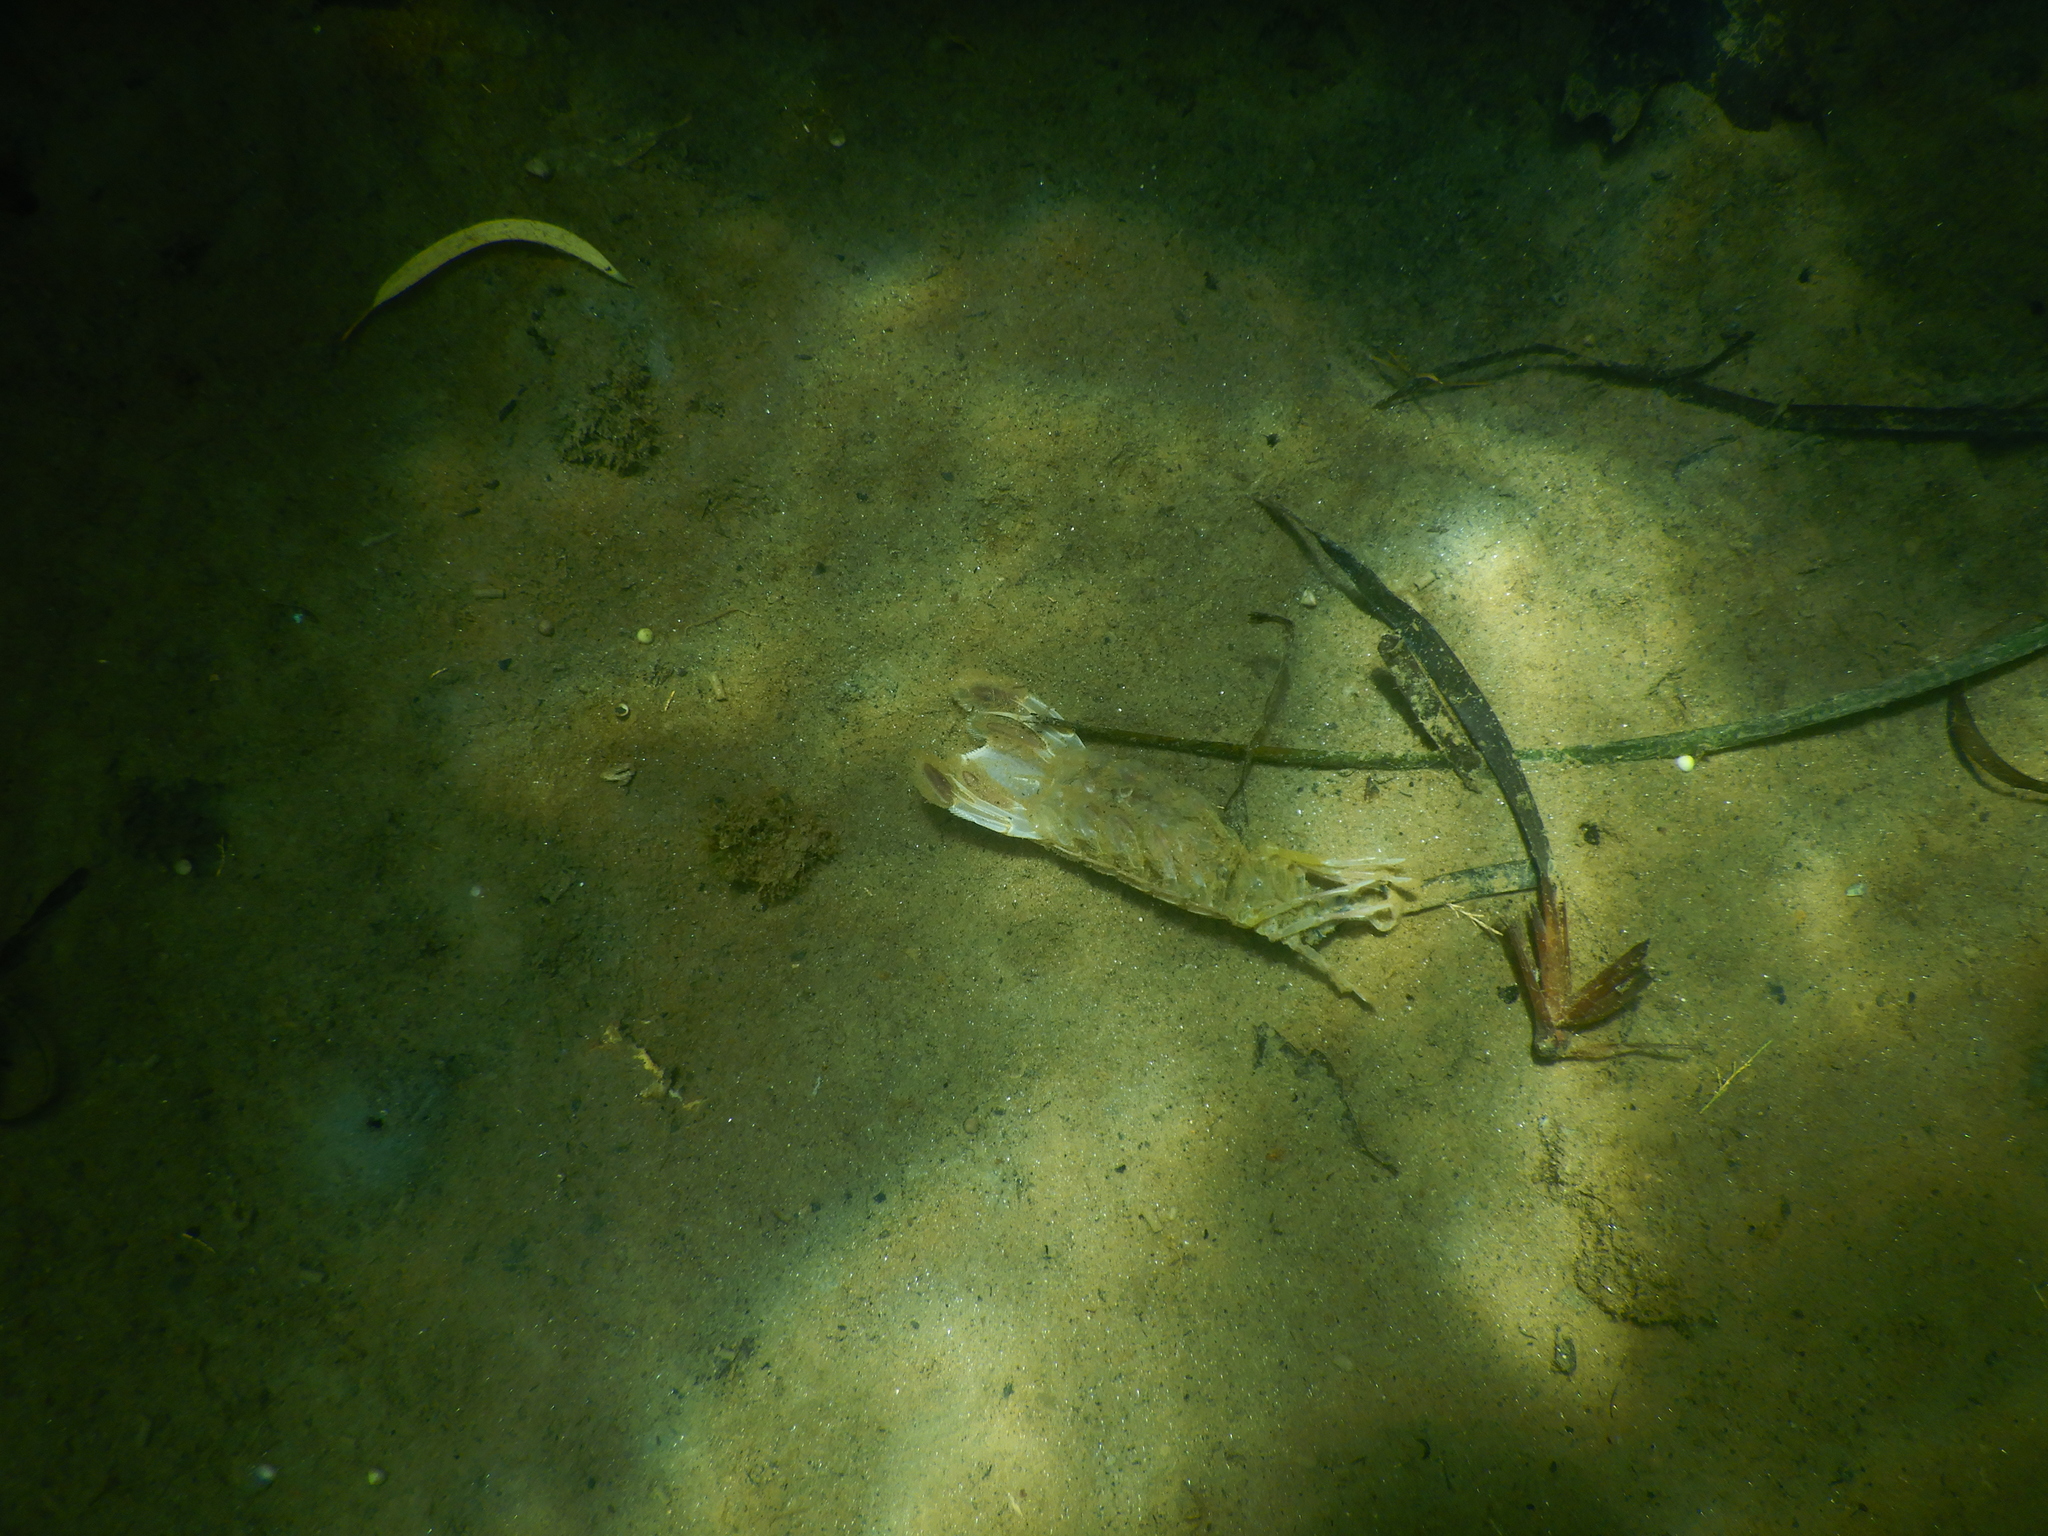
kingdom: Animalia
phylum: Arthropoda
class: Malacostraca
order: Stomatopoda
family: Squillidae
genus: Squilla
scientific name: Squilla mantis
